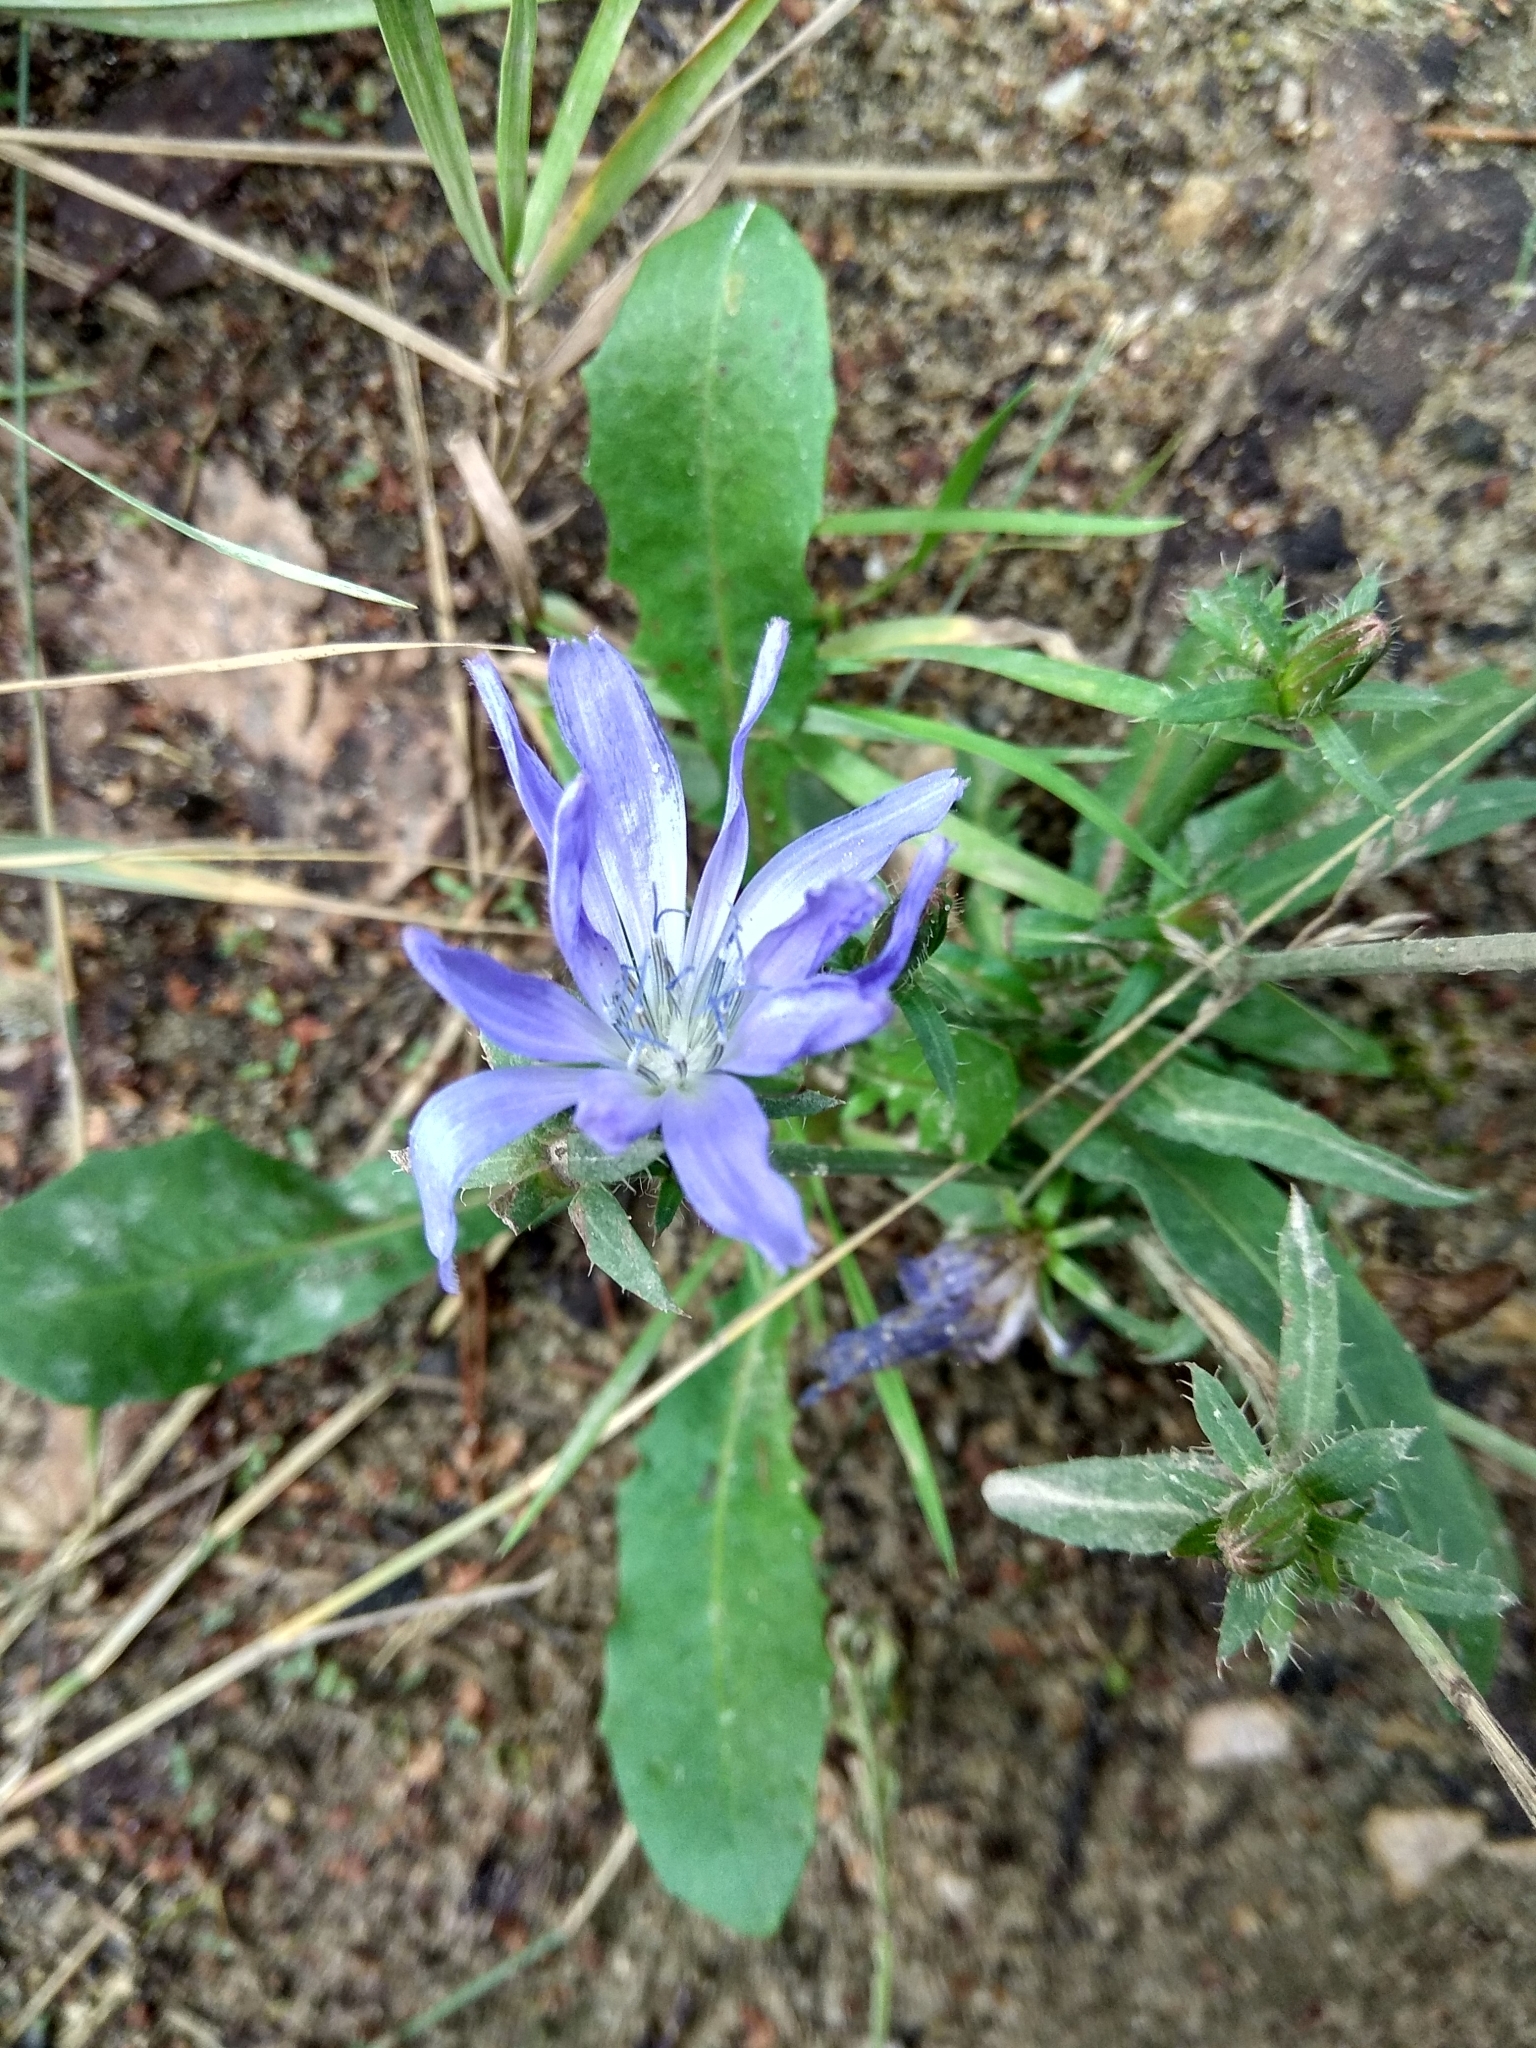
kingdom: Plantae
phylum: Tracheophyta
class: Magnoliopsida
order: Asterales
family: Asteraceae
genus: Cichorium
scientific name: Cichorium intybus
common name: Chicory
